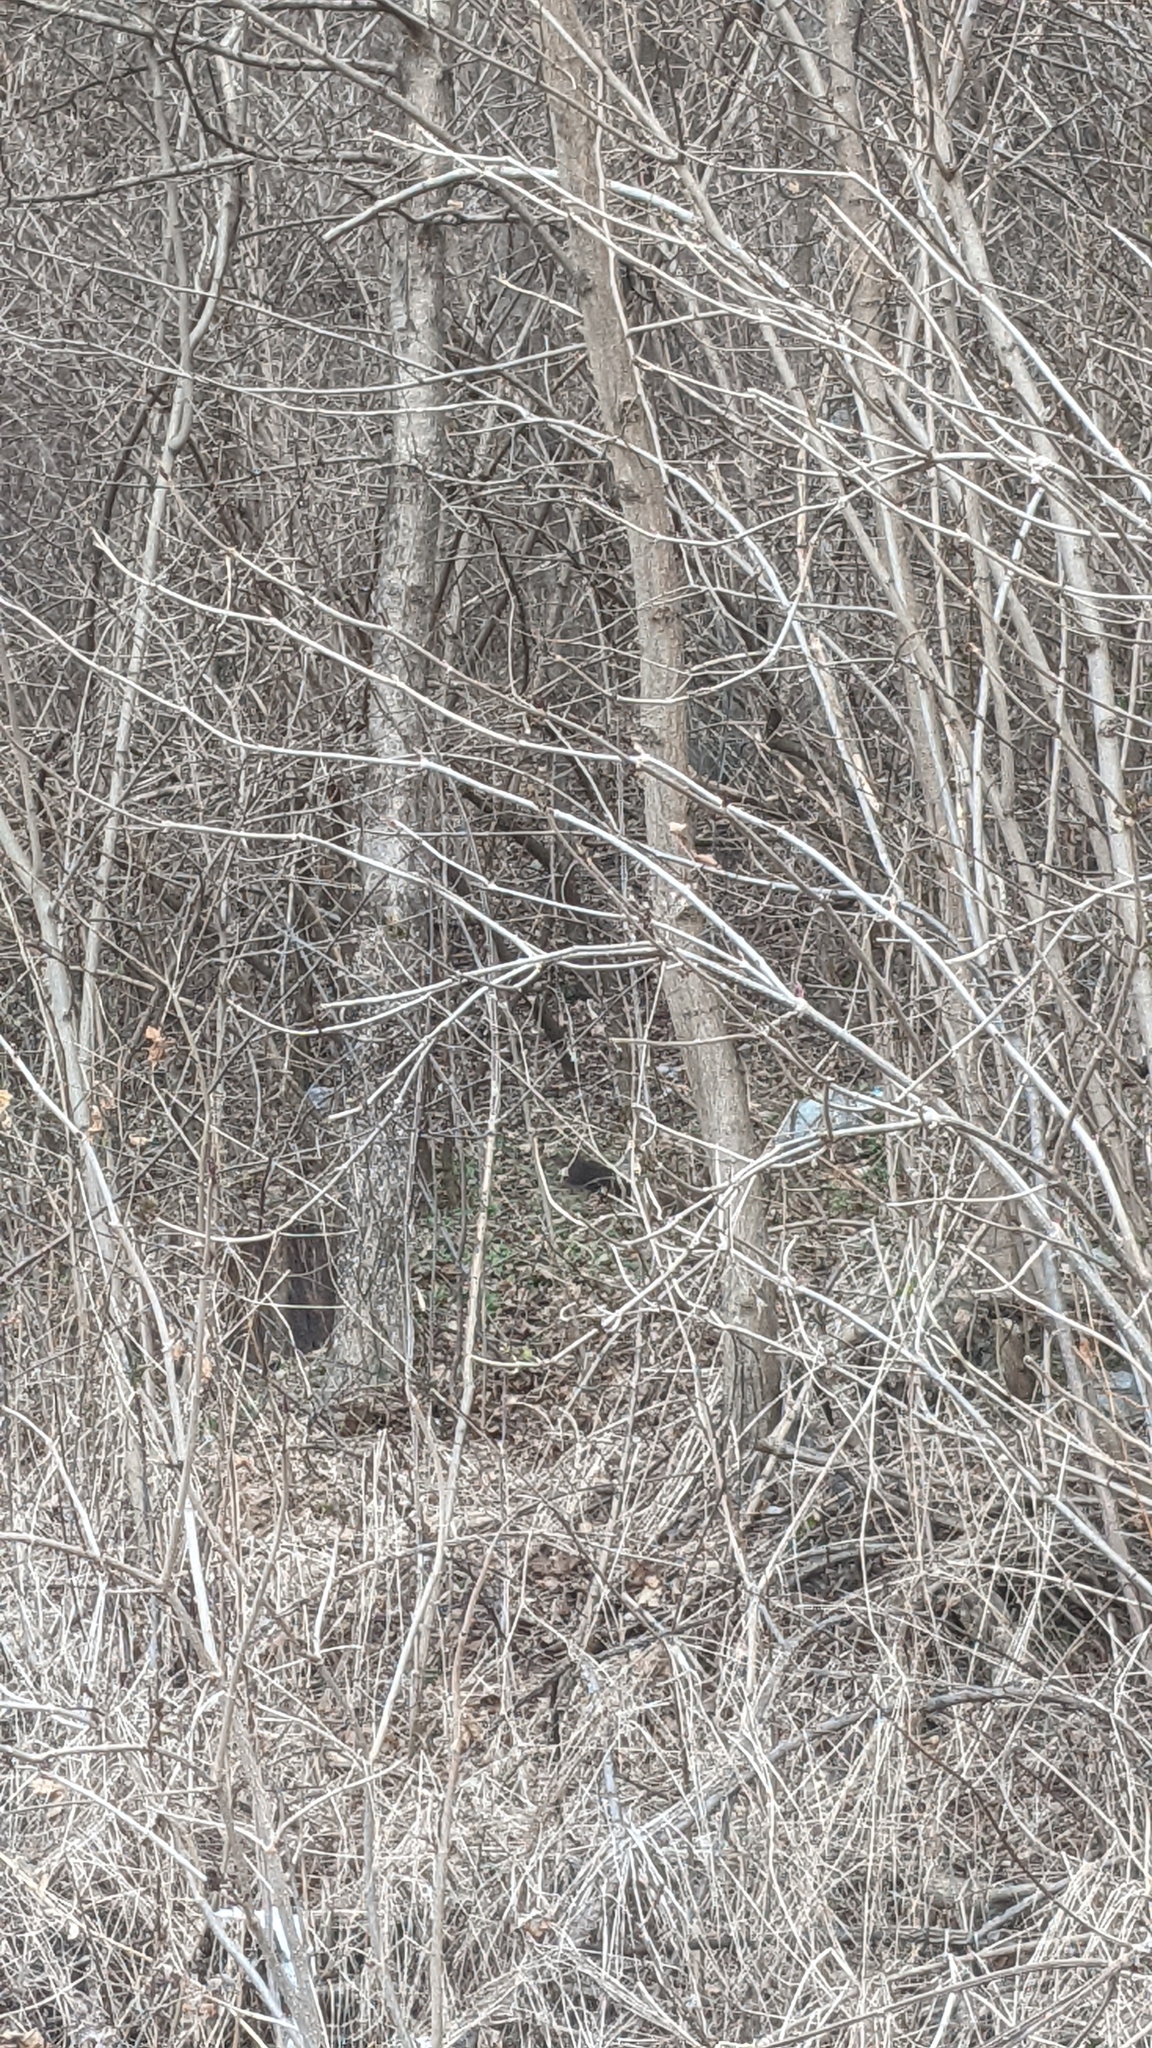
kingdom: Animalia
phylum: Chordata
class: Mammalia
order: Rodentia
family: Sciuridae
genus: Sciurus
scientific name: Sciurus vulgaris
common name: Eurasian red squirrel
